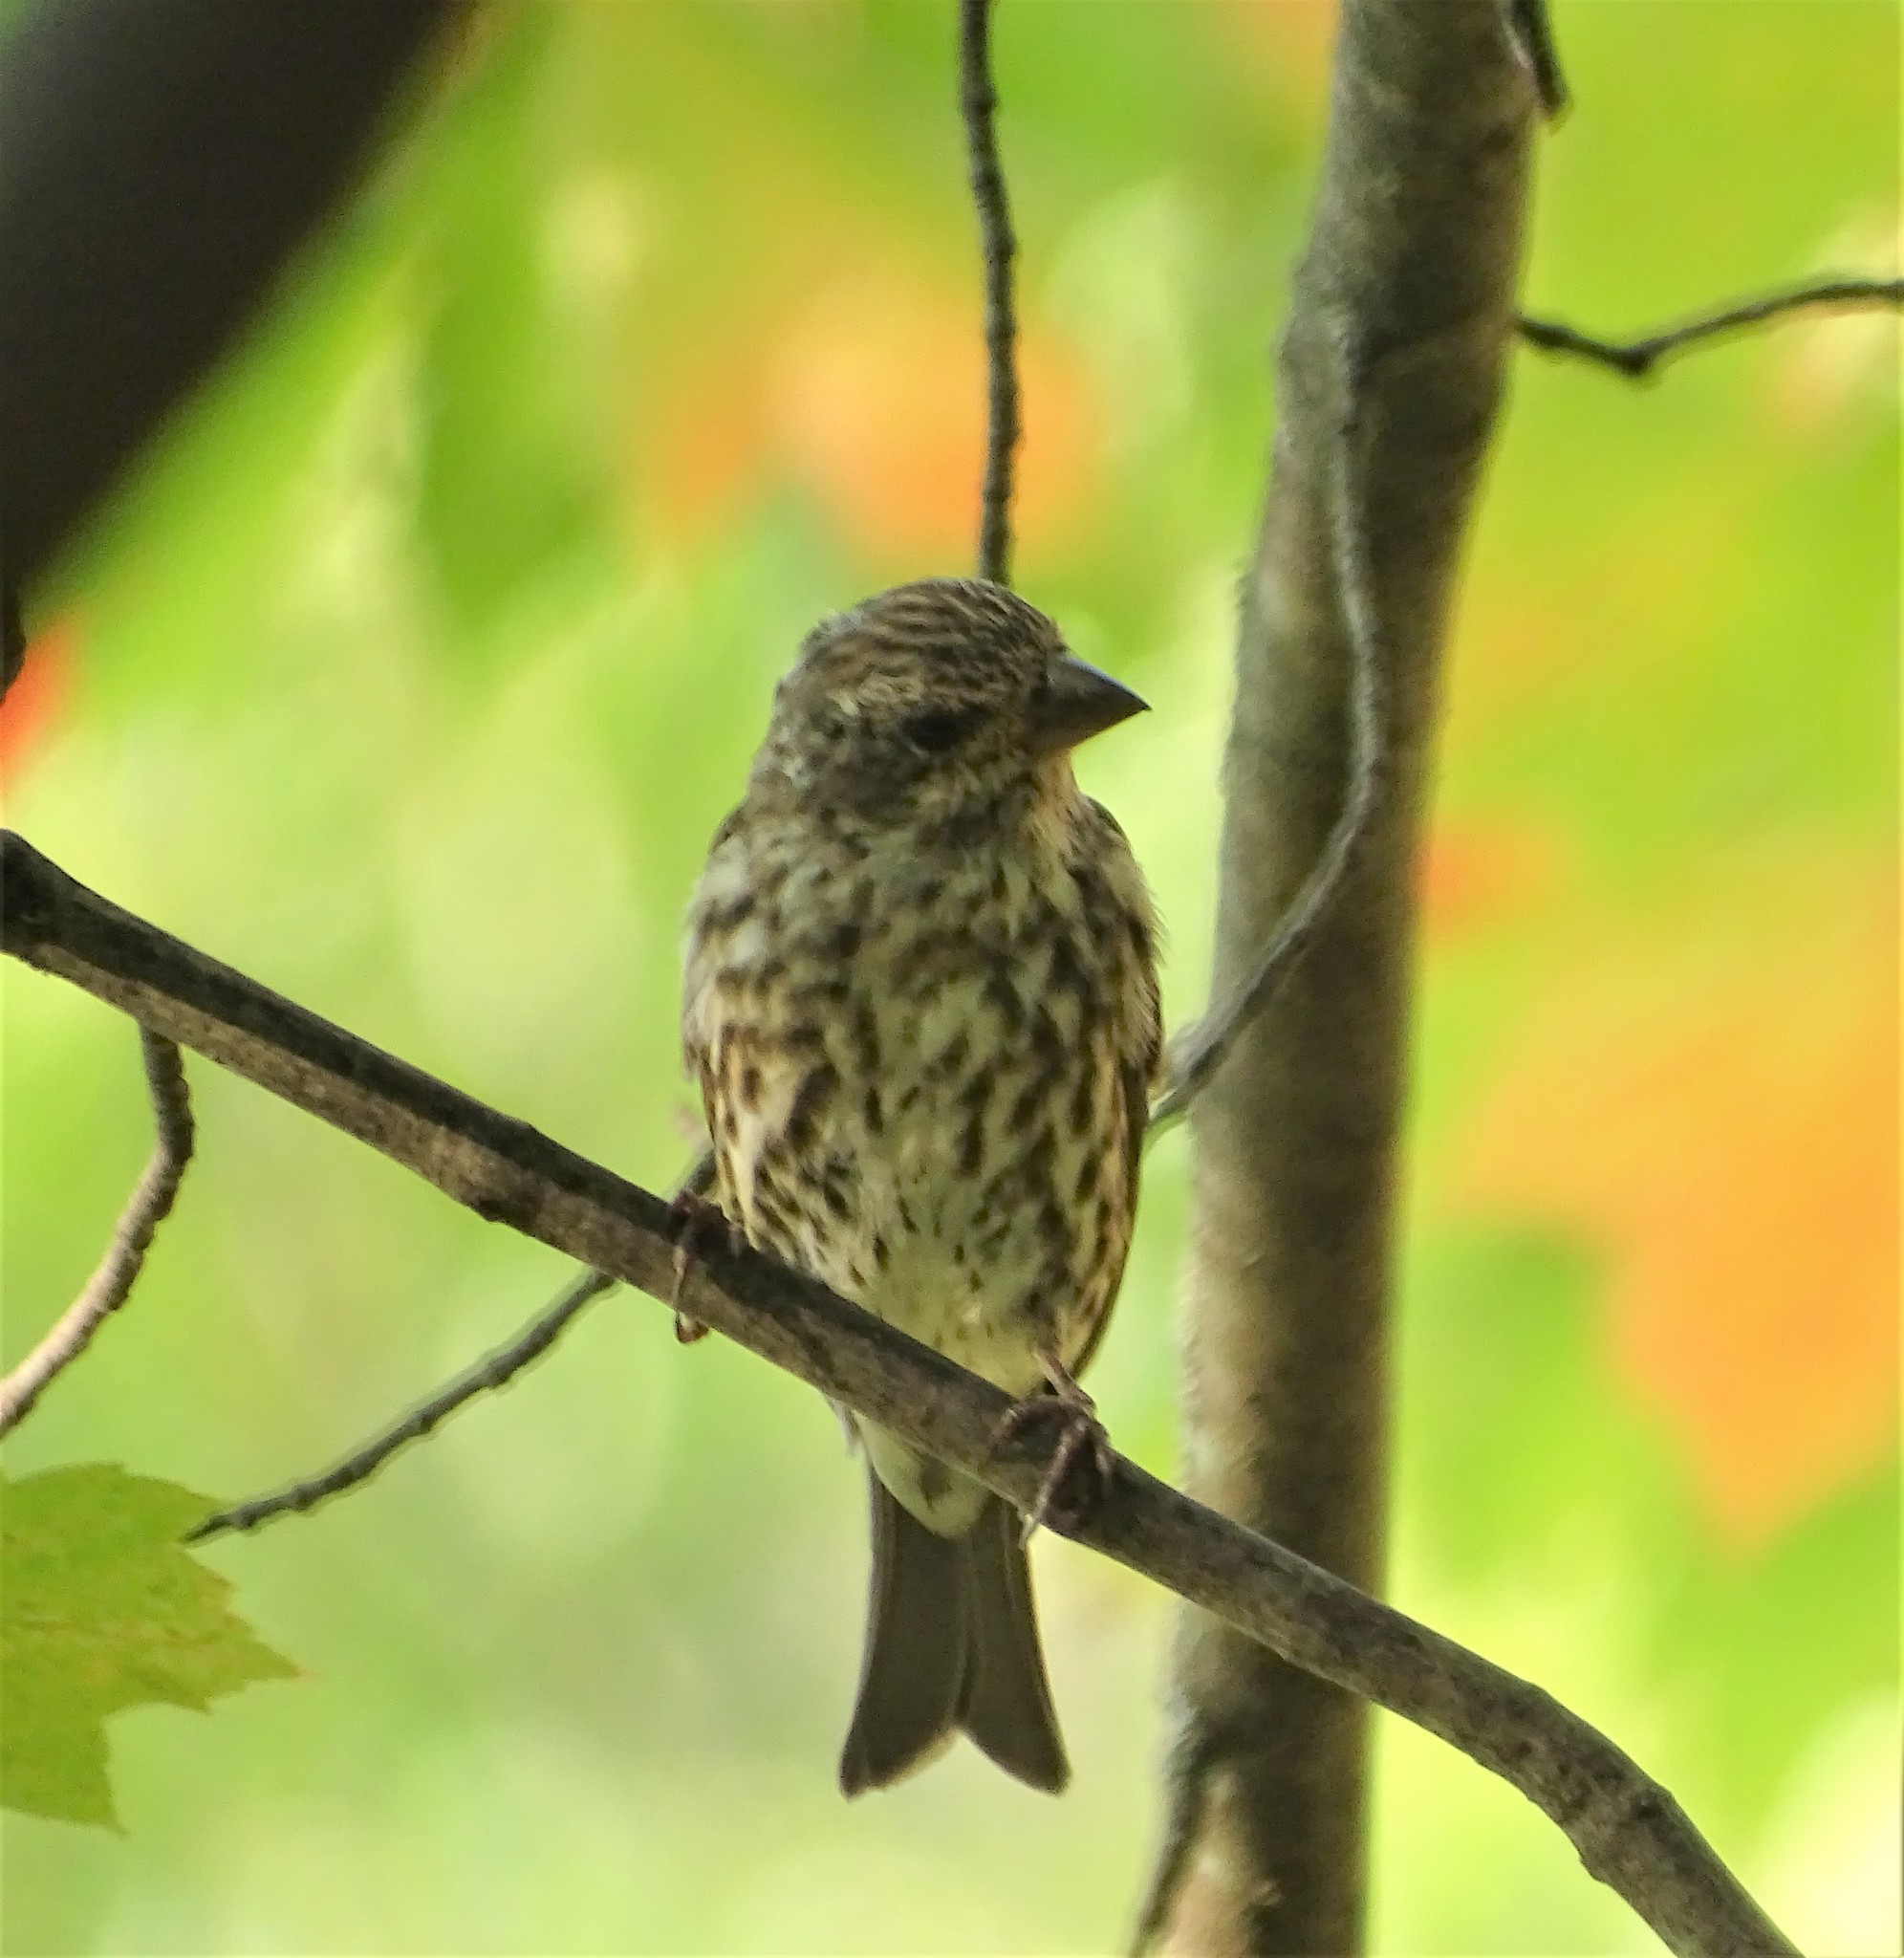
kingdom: Animalia
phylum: Chordata
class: Aves
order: Passeriformes
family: Fringillidae
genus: Haemorhous
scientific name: Haemorhous purpureus
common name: Purple finch
